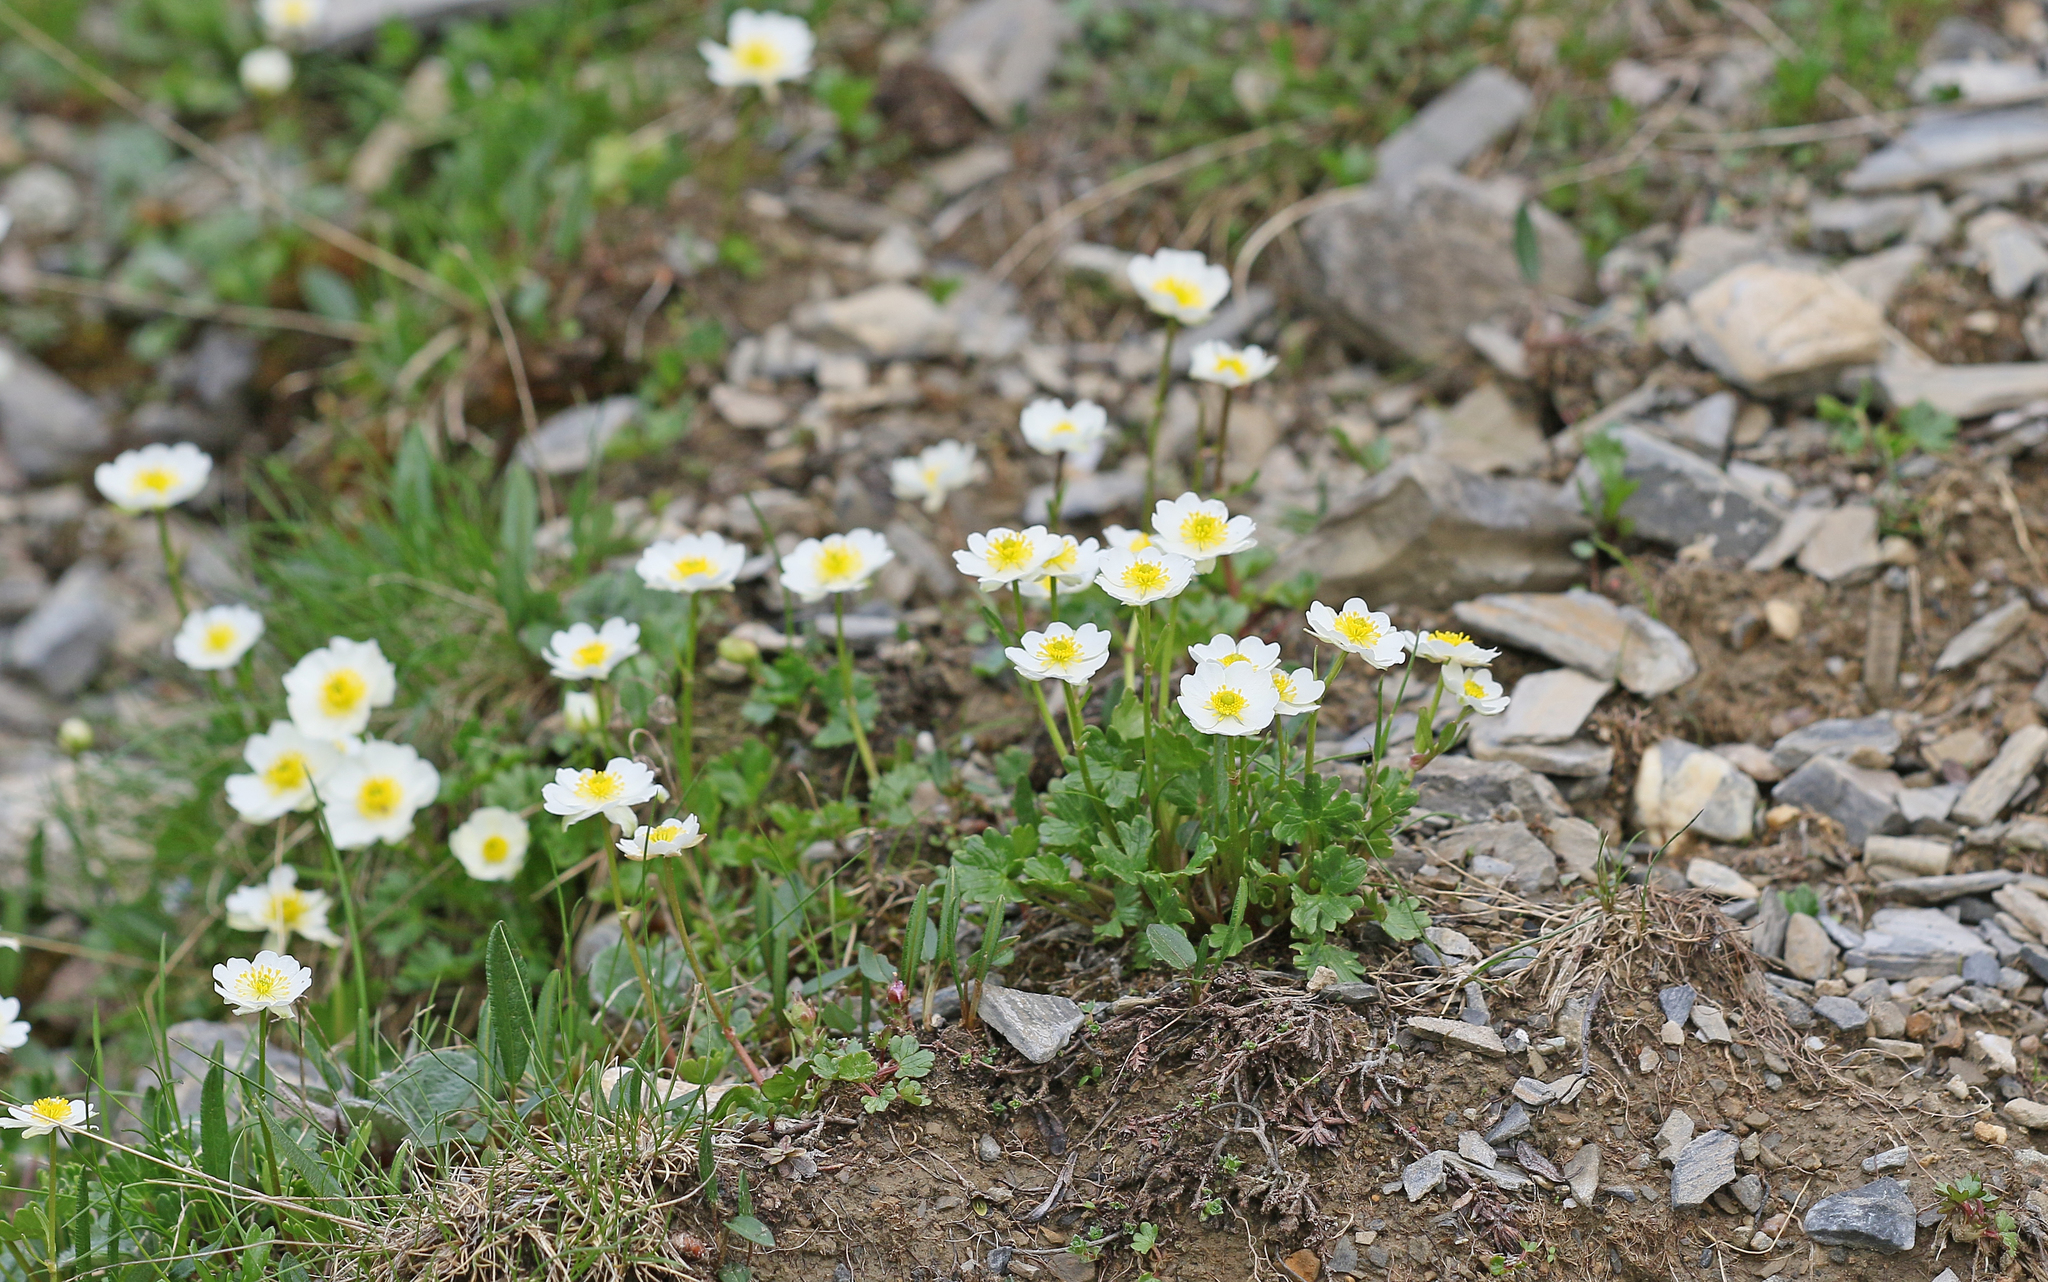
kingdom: Plantae
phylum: Tracheophyta
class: Magnoliopsida
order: Ranunculales
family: Ranunculaceae
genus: Ranunculus
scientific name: Ranunculus alpestris
